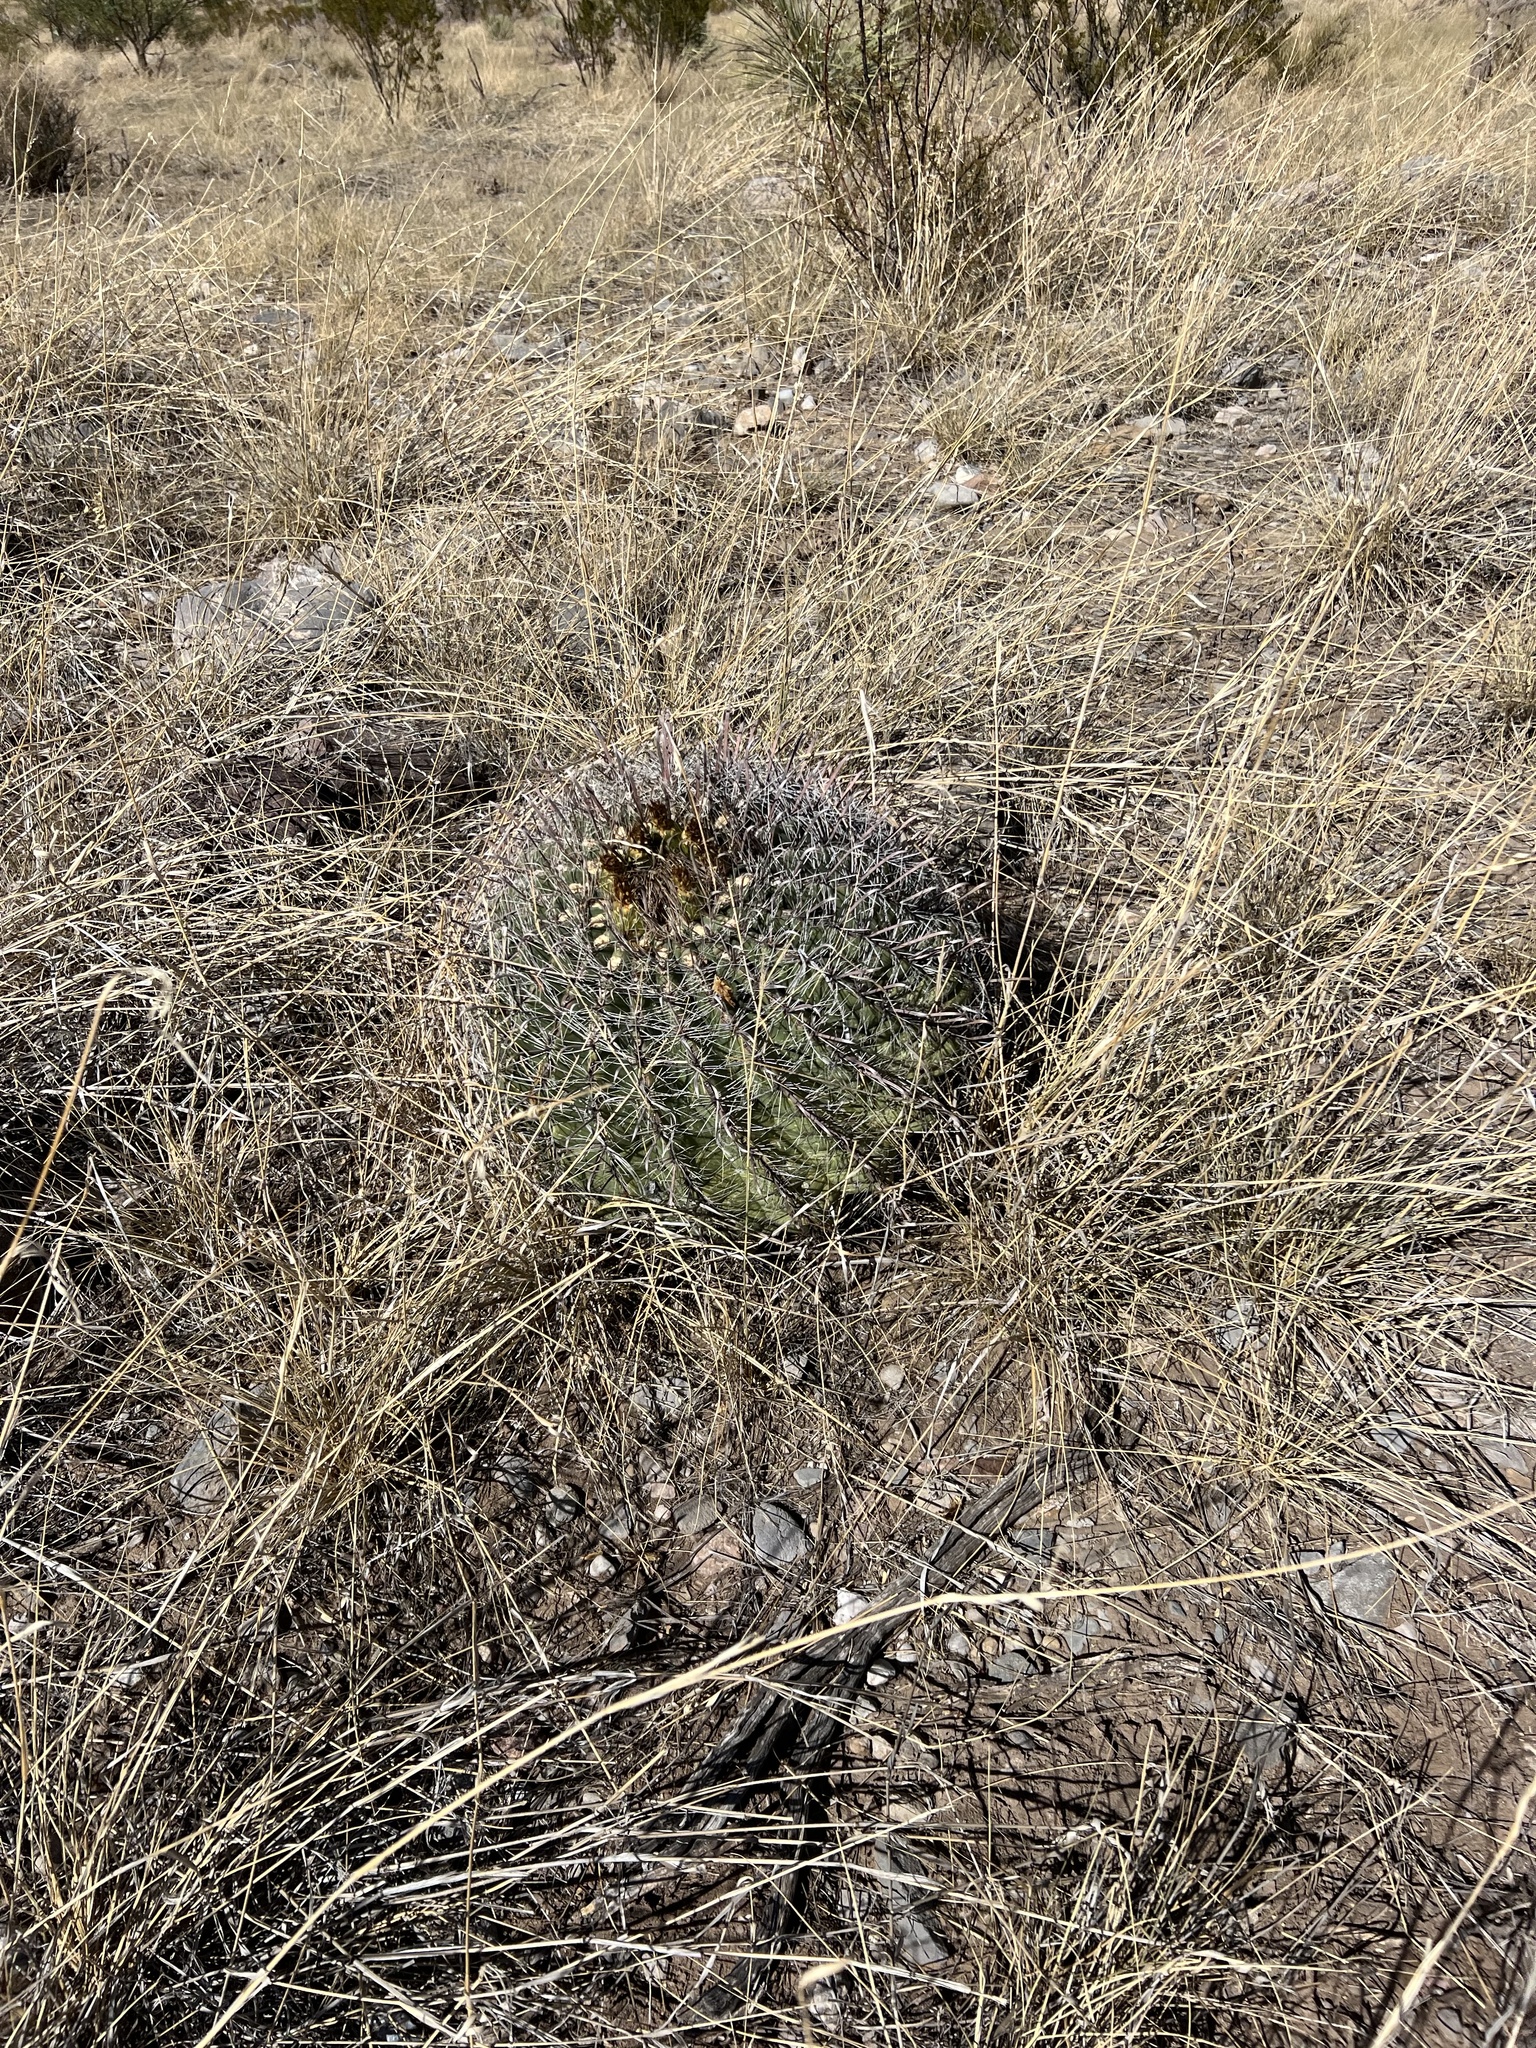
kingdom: Plantae
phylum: Tracheophyta
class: Magnoliopsida
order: Caryophyllales
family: Cactaceae
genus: Ferocactus
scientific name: Ferocactus wislizeni
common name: Candy barrel cactus
